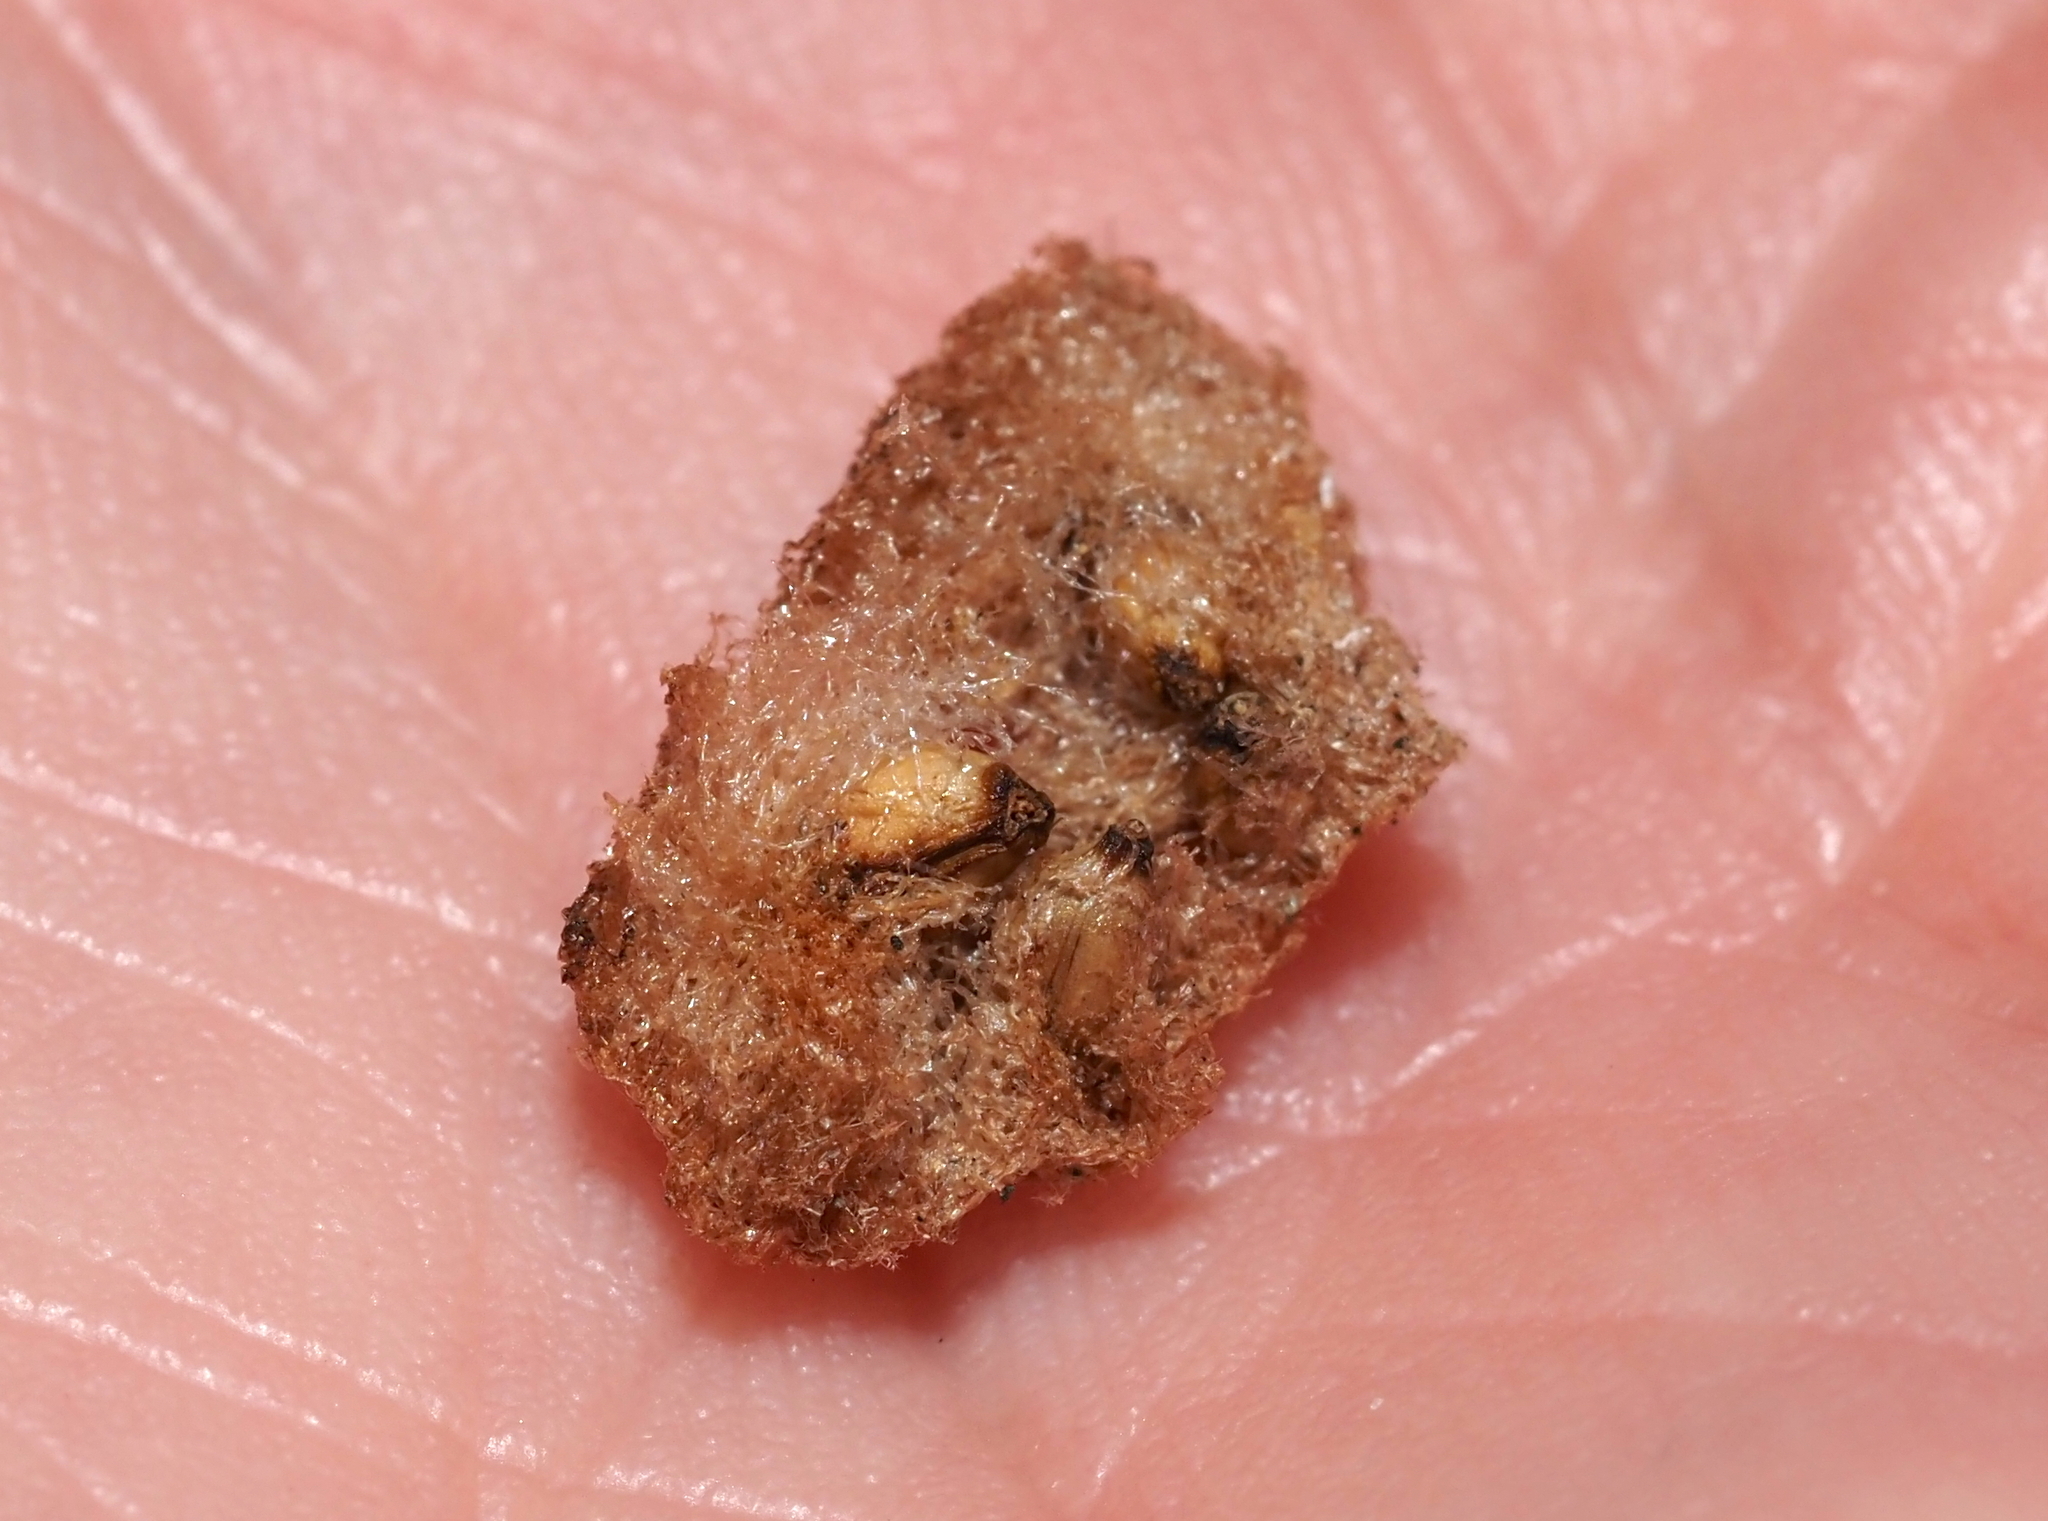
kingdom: Animalia
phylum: Arthropoda
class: Insecta
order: Hymenoptera
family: Cynipidae
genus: Callirhytis
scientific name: Callirhytis
